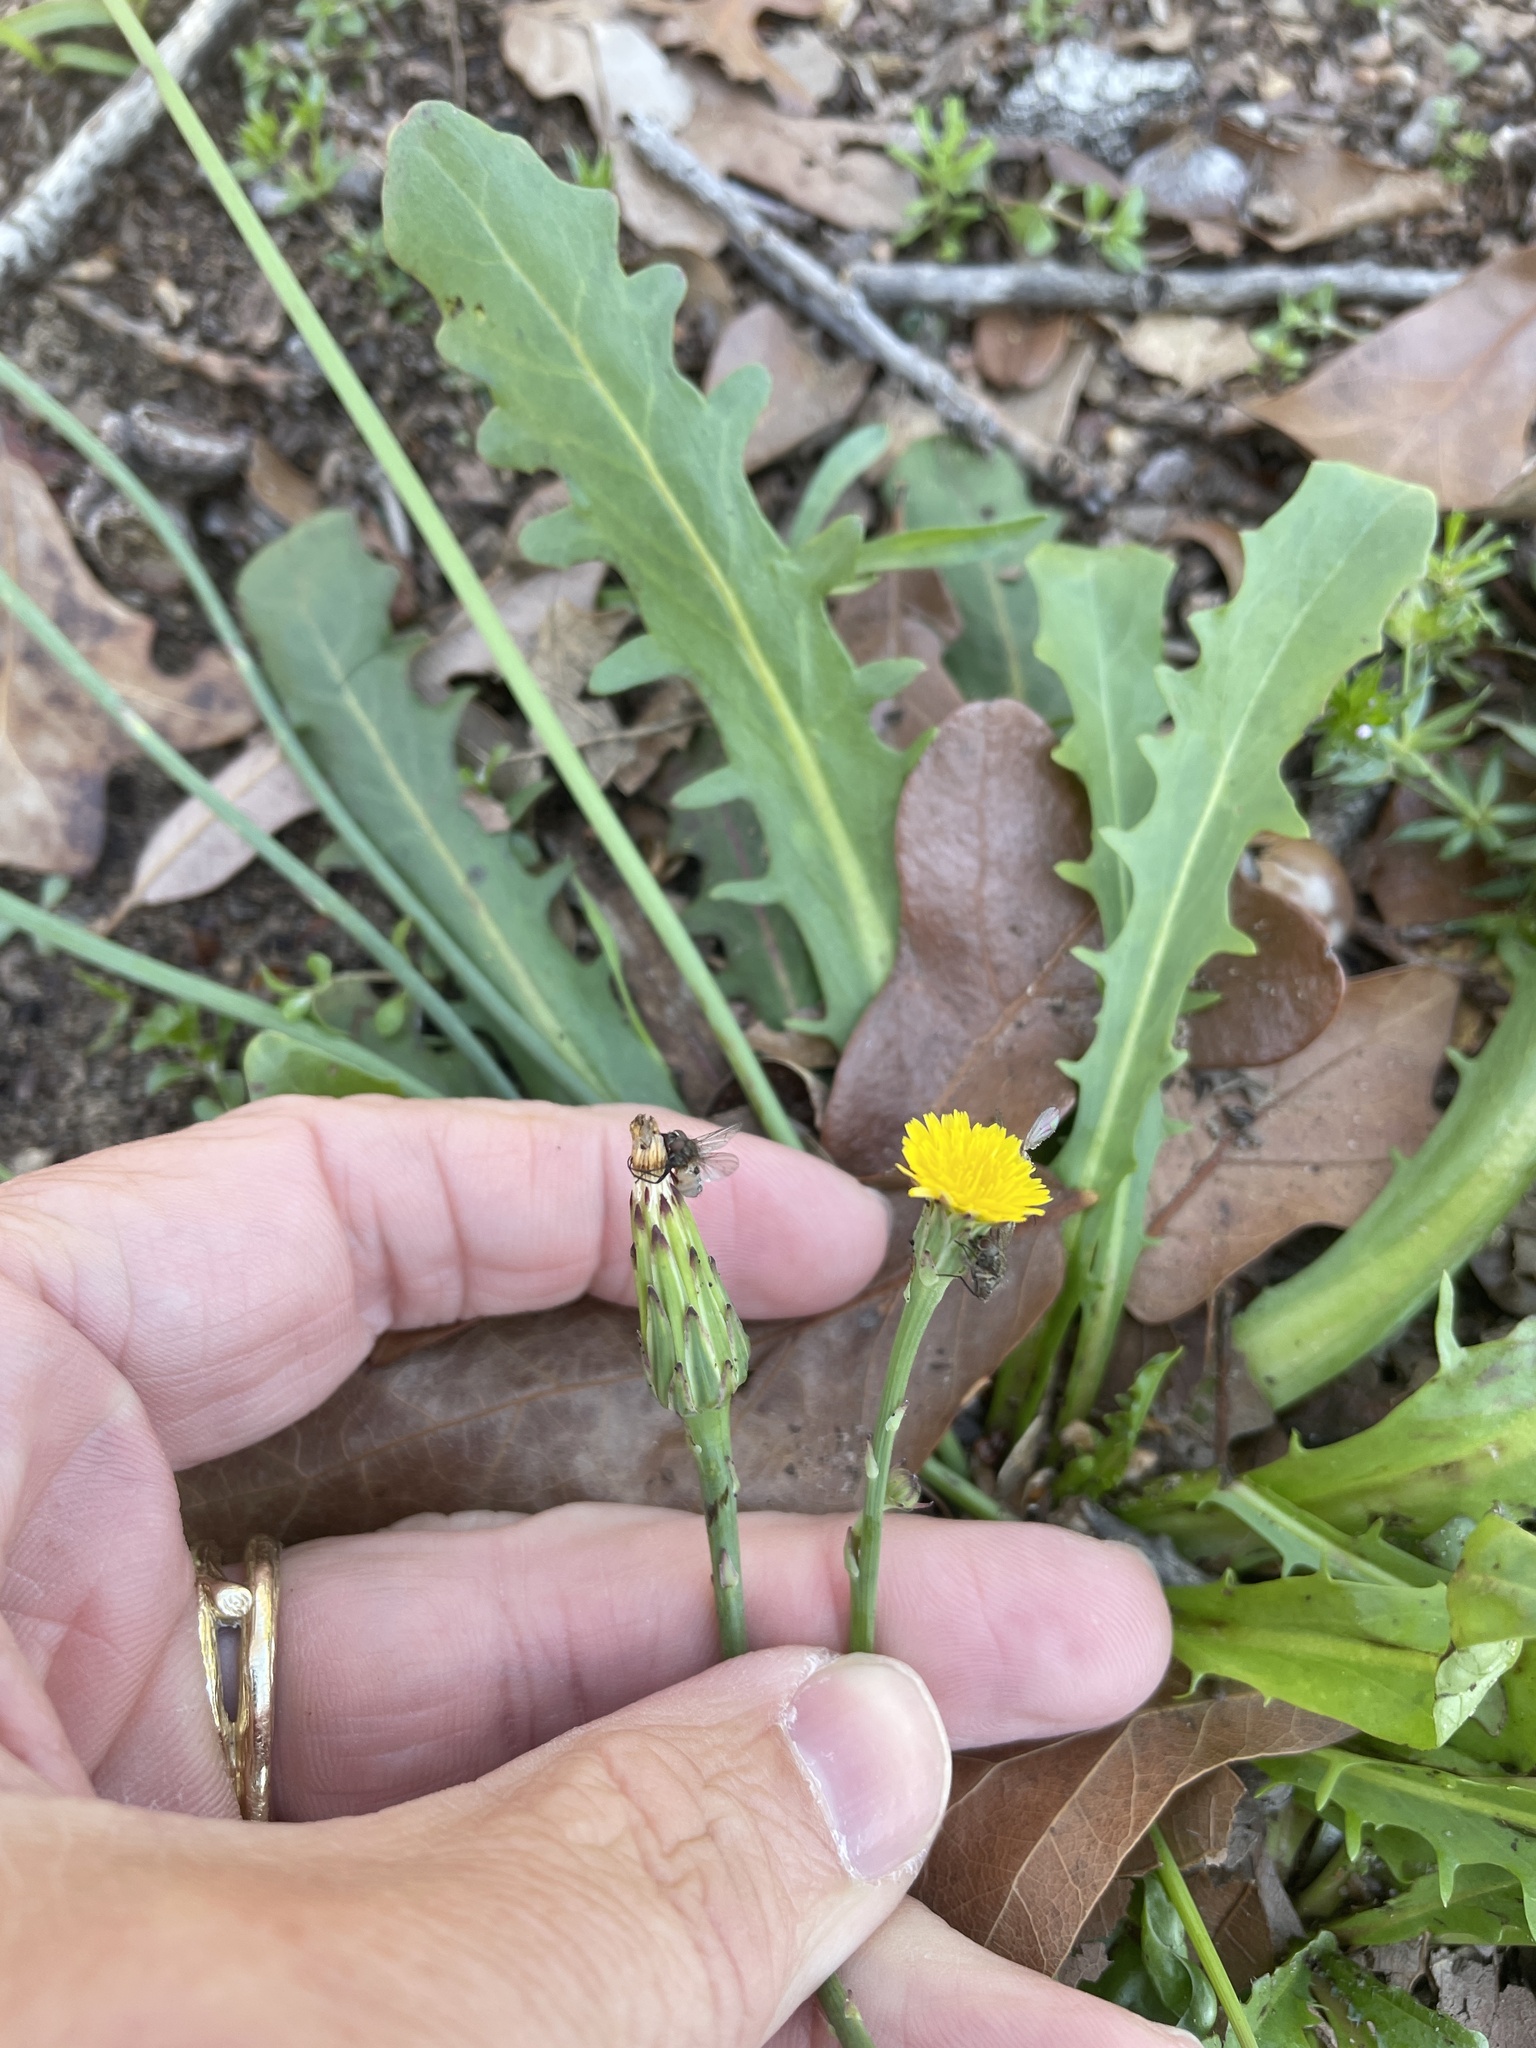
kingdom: Plantae
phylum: Tracheophyta
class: Magnoliopsida
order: Asterales
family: Asteraceae
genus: Hypochaeris
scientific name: Hypochaeris glabra
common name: Smooth catsear
